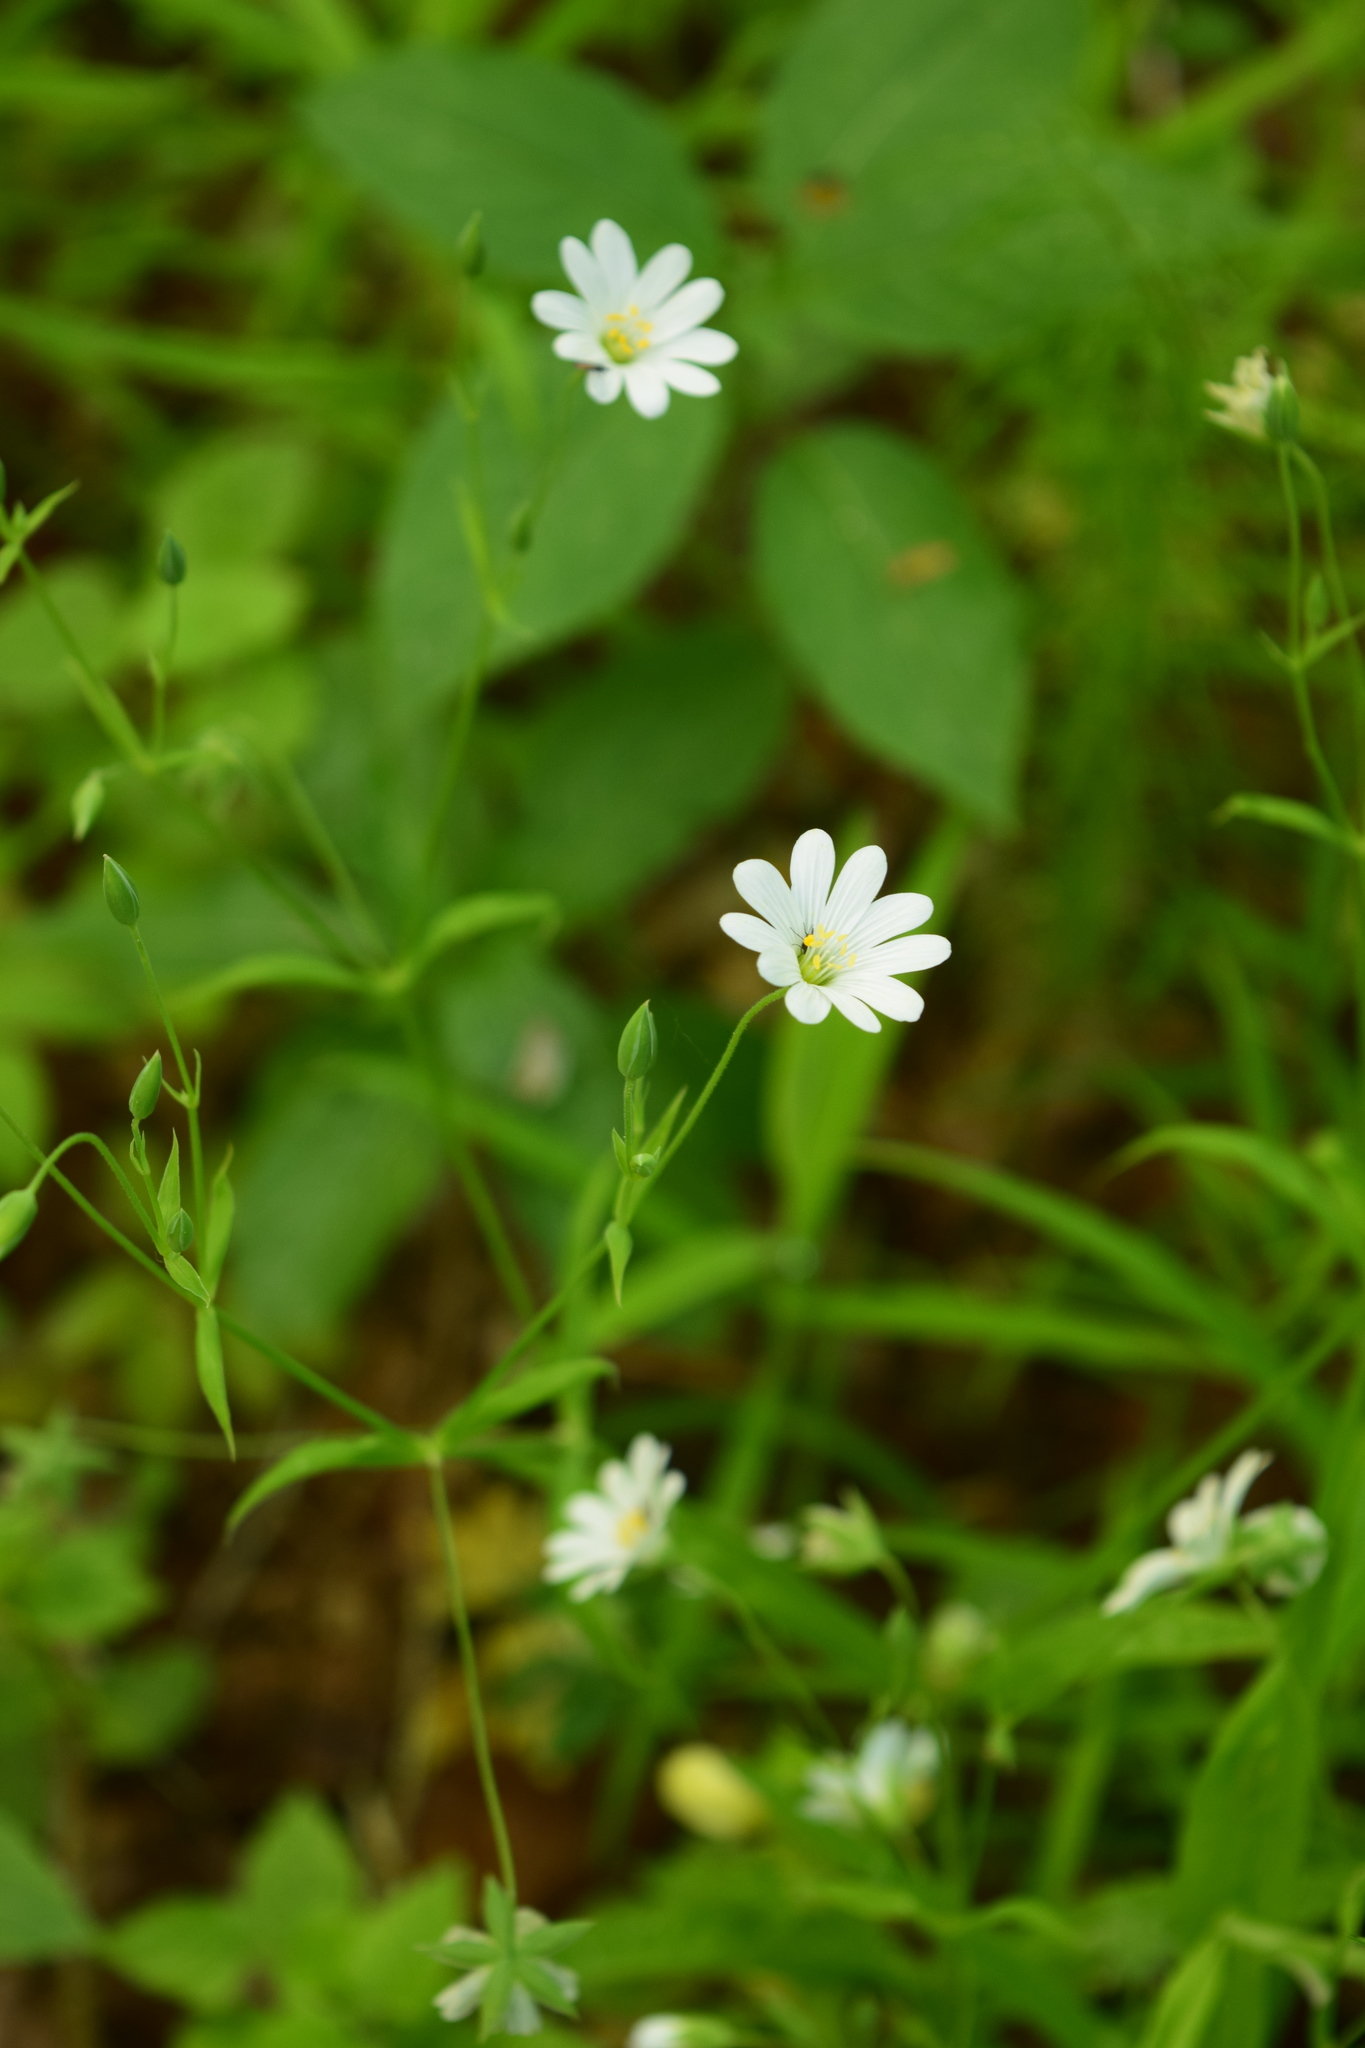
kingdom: Plantae
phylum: Tracheophyta
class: Magnoliopsida
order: Caryophyllales
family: Caryophyllaceae
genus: Rabelera
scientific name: Rabelera holostea
